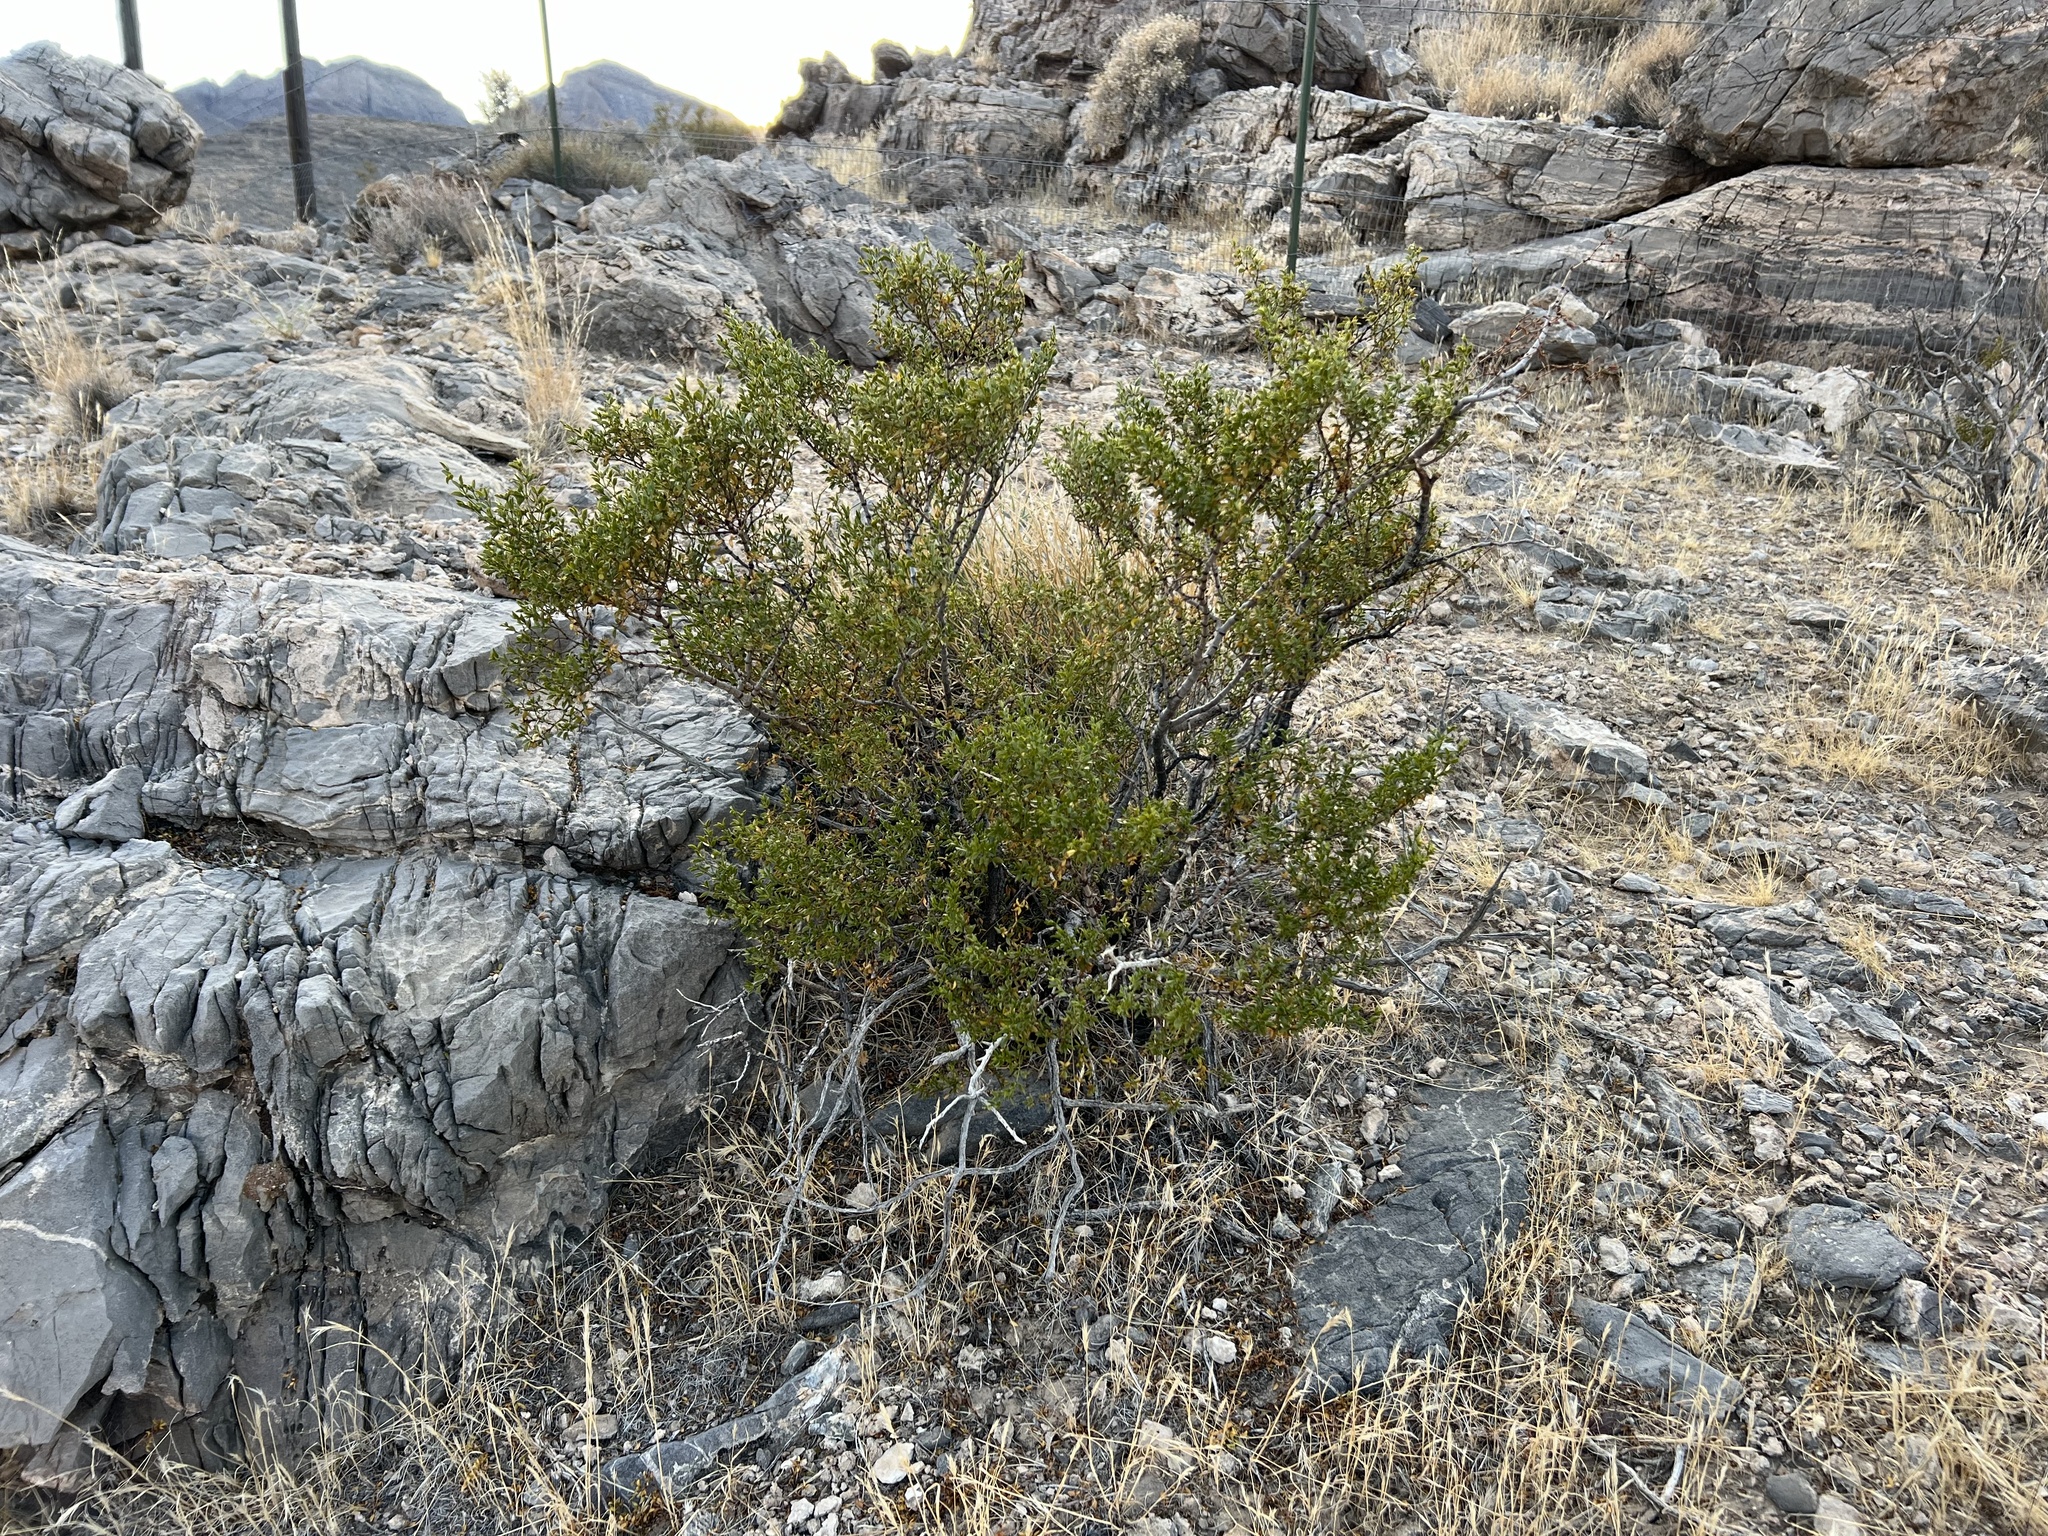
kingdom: Plantae
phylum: Tracheophyta
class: Magnoliopsida
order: Zygophyllales
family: Zygophyllaceae
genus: Larrea
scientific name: Larrea tridentata
